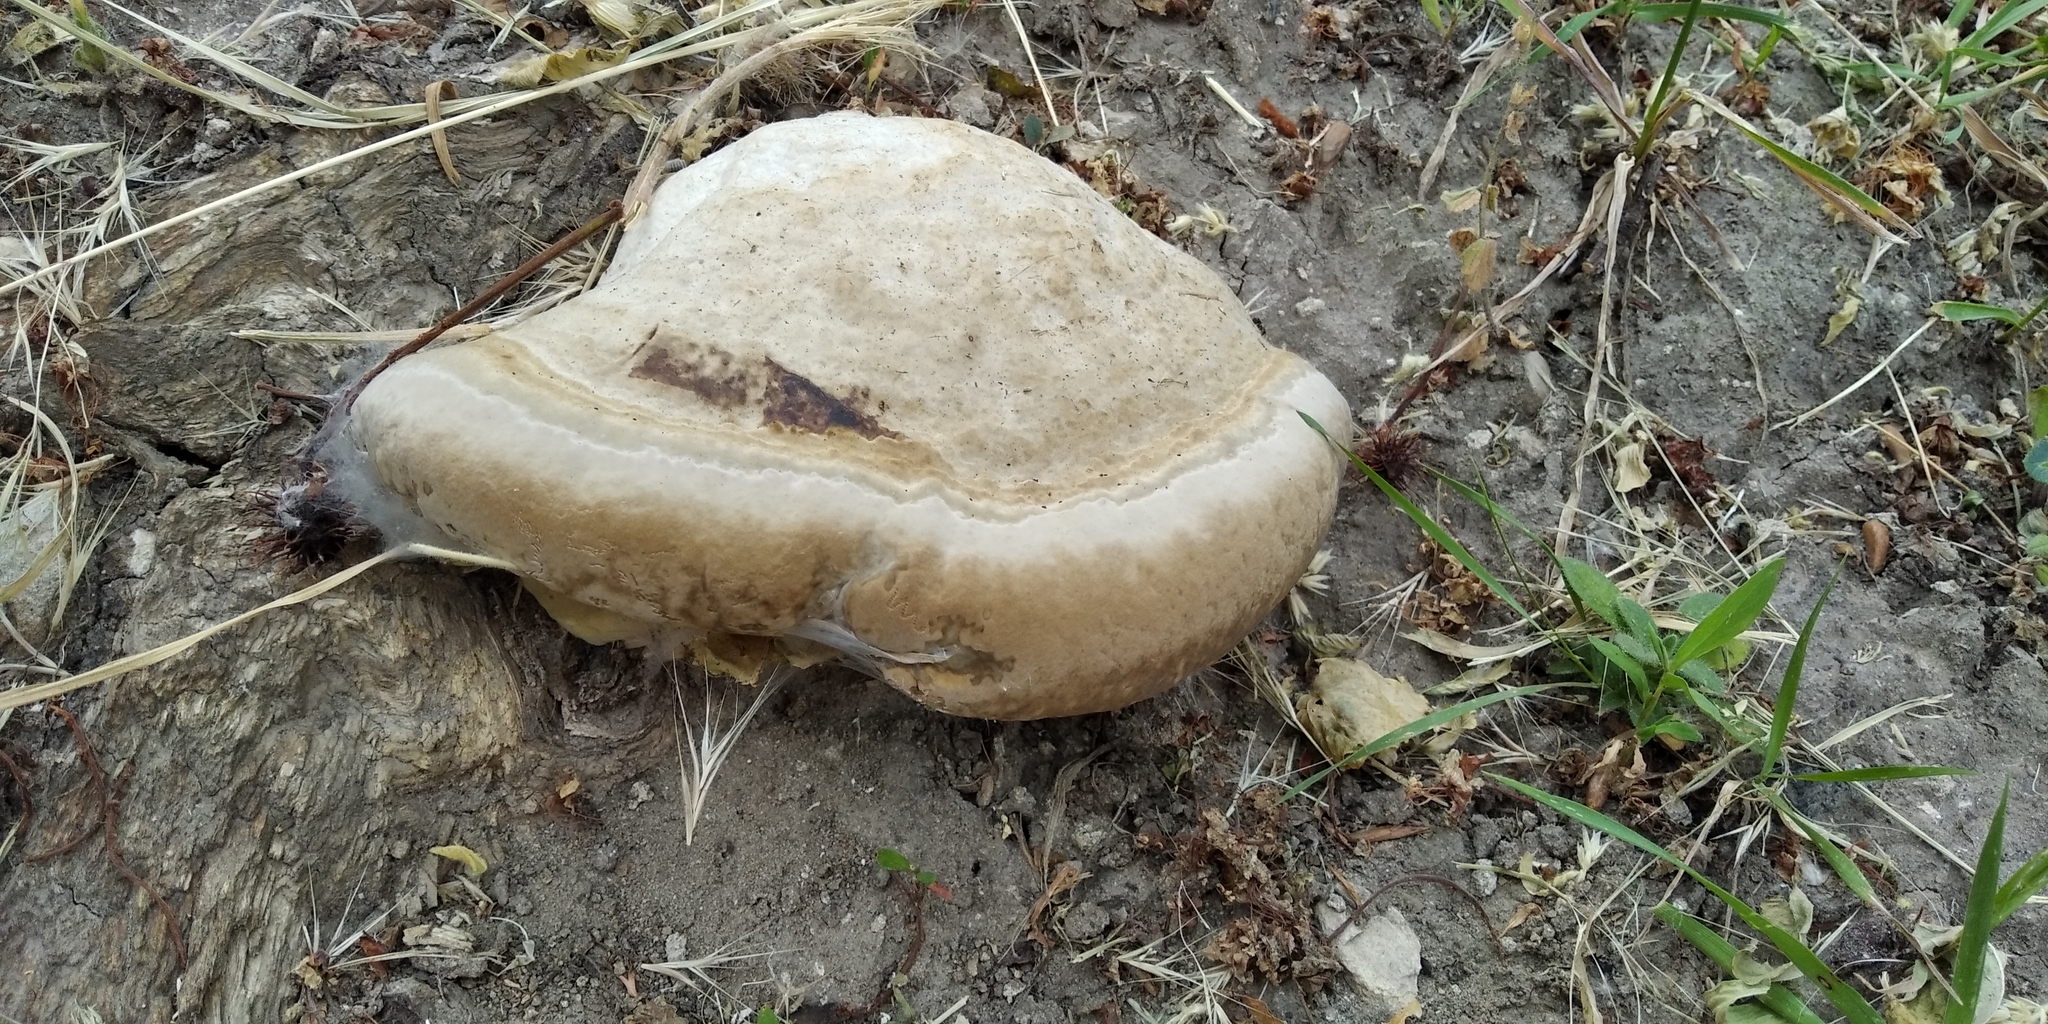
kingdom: Fungi
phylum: Basidiomycota
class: Agaricomycetes
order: Polyporales
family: Polyporaceae
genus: Fomes
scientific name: Fomes fomentarius
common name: Hoof fungus
